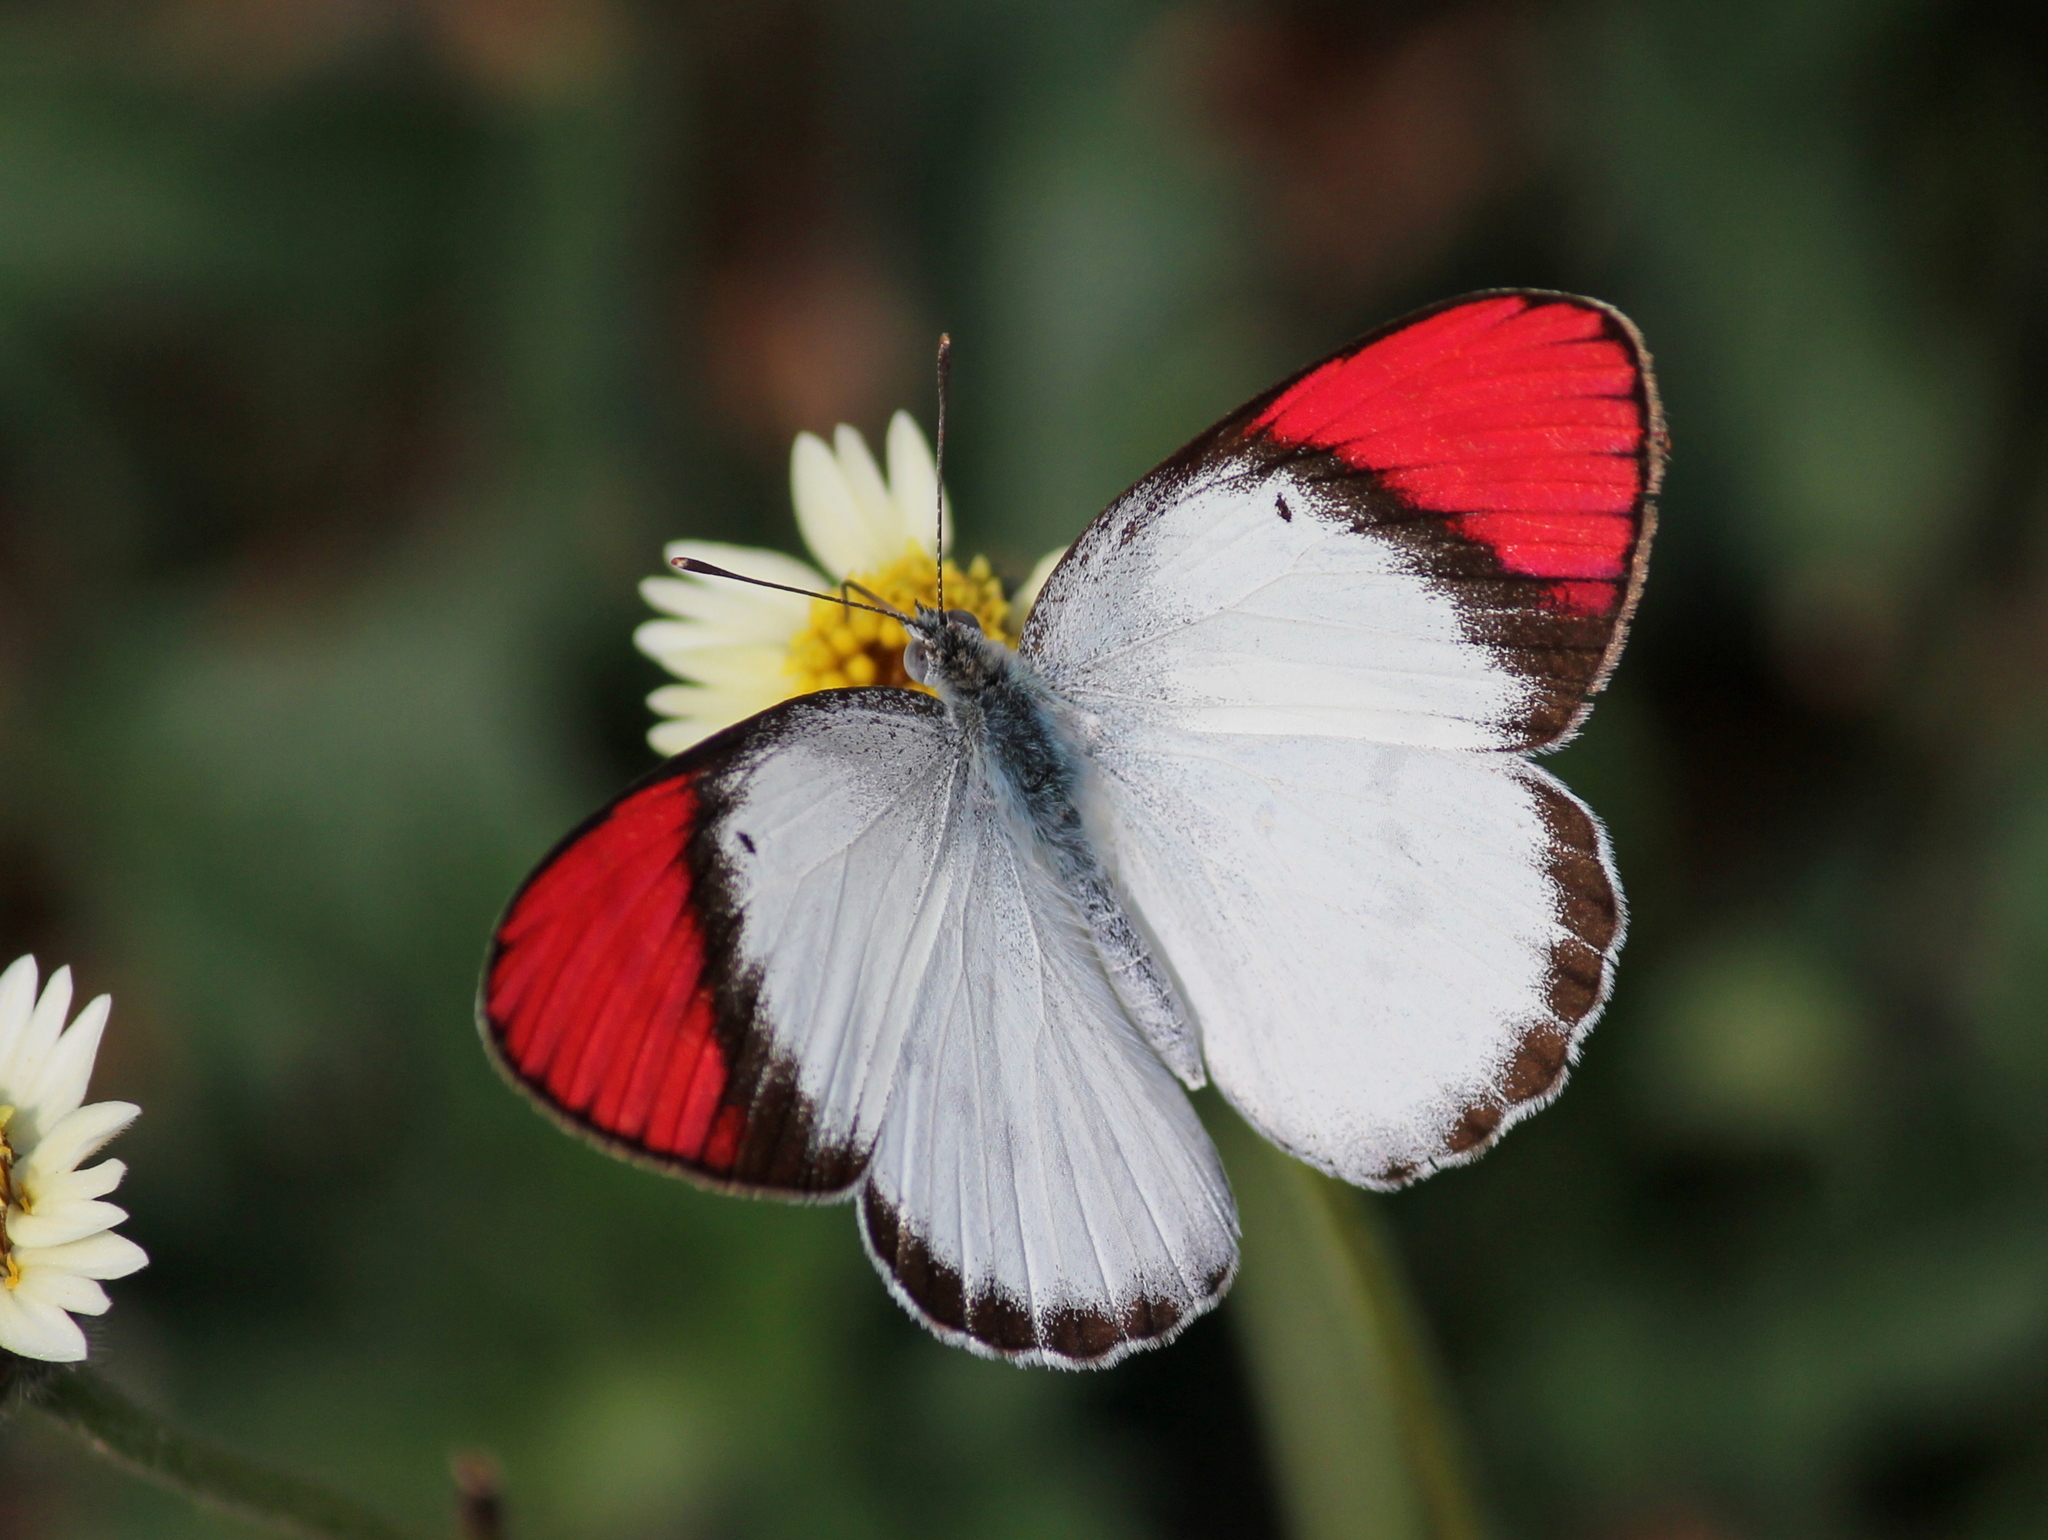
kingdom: Animalia
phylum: Arthropoda
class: Insecta
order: Lepidoptera
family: Pieridae
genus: Colotis
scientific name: Colotis danae
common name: Crimson tip
